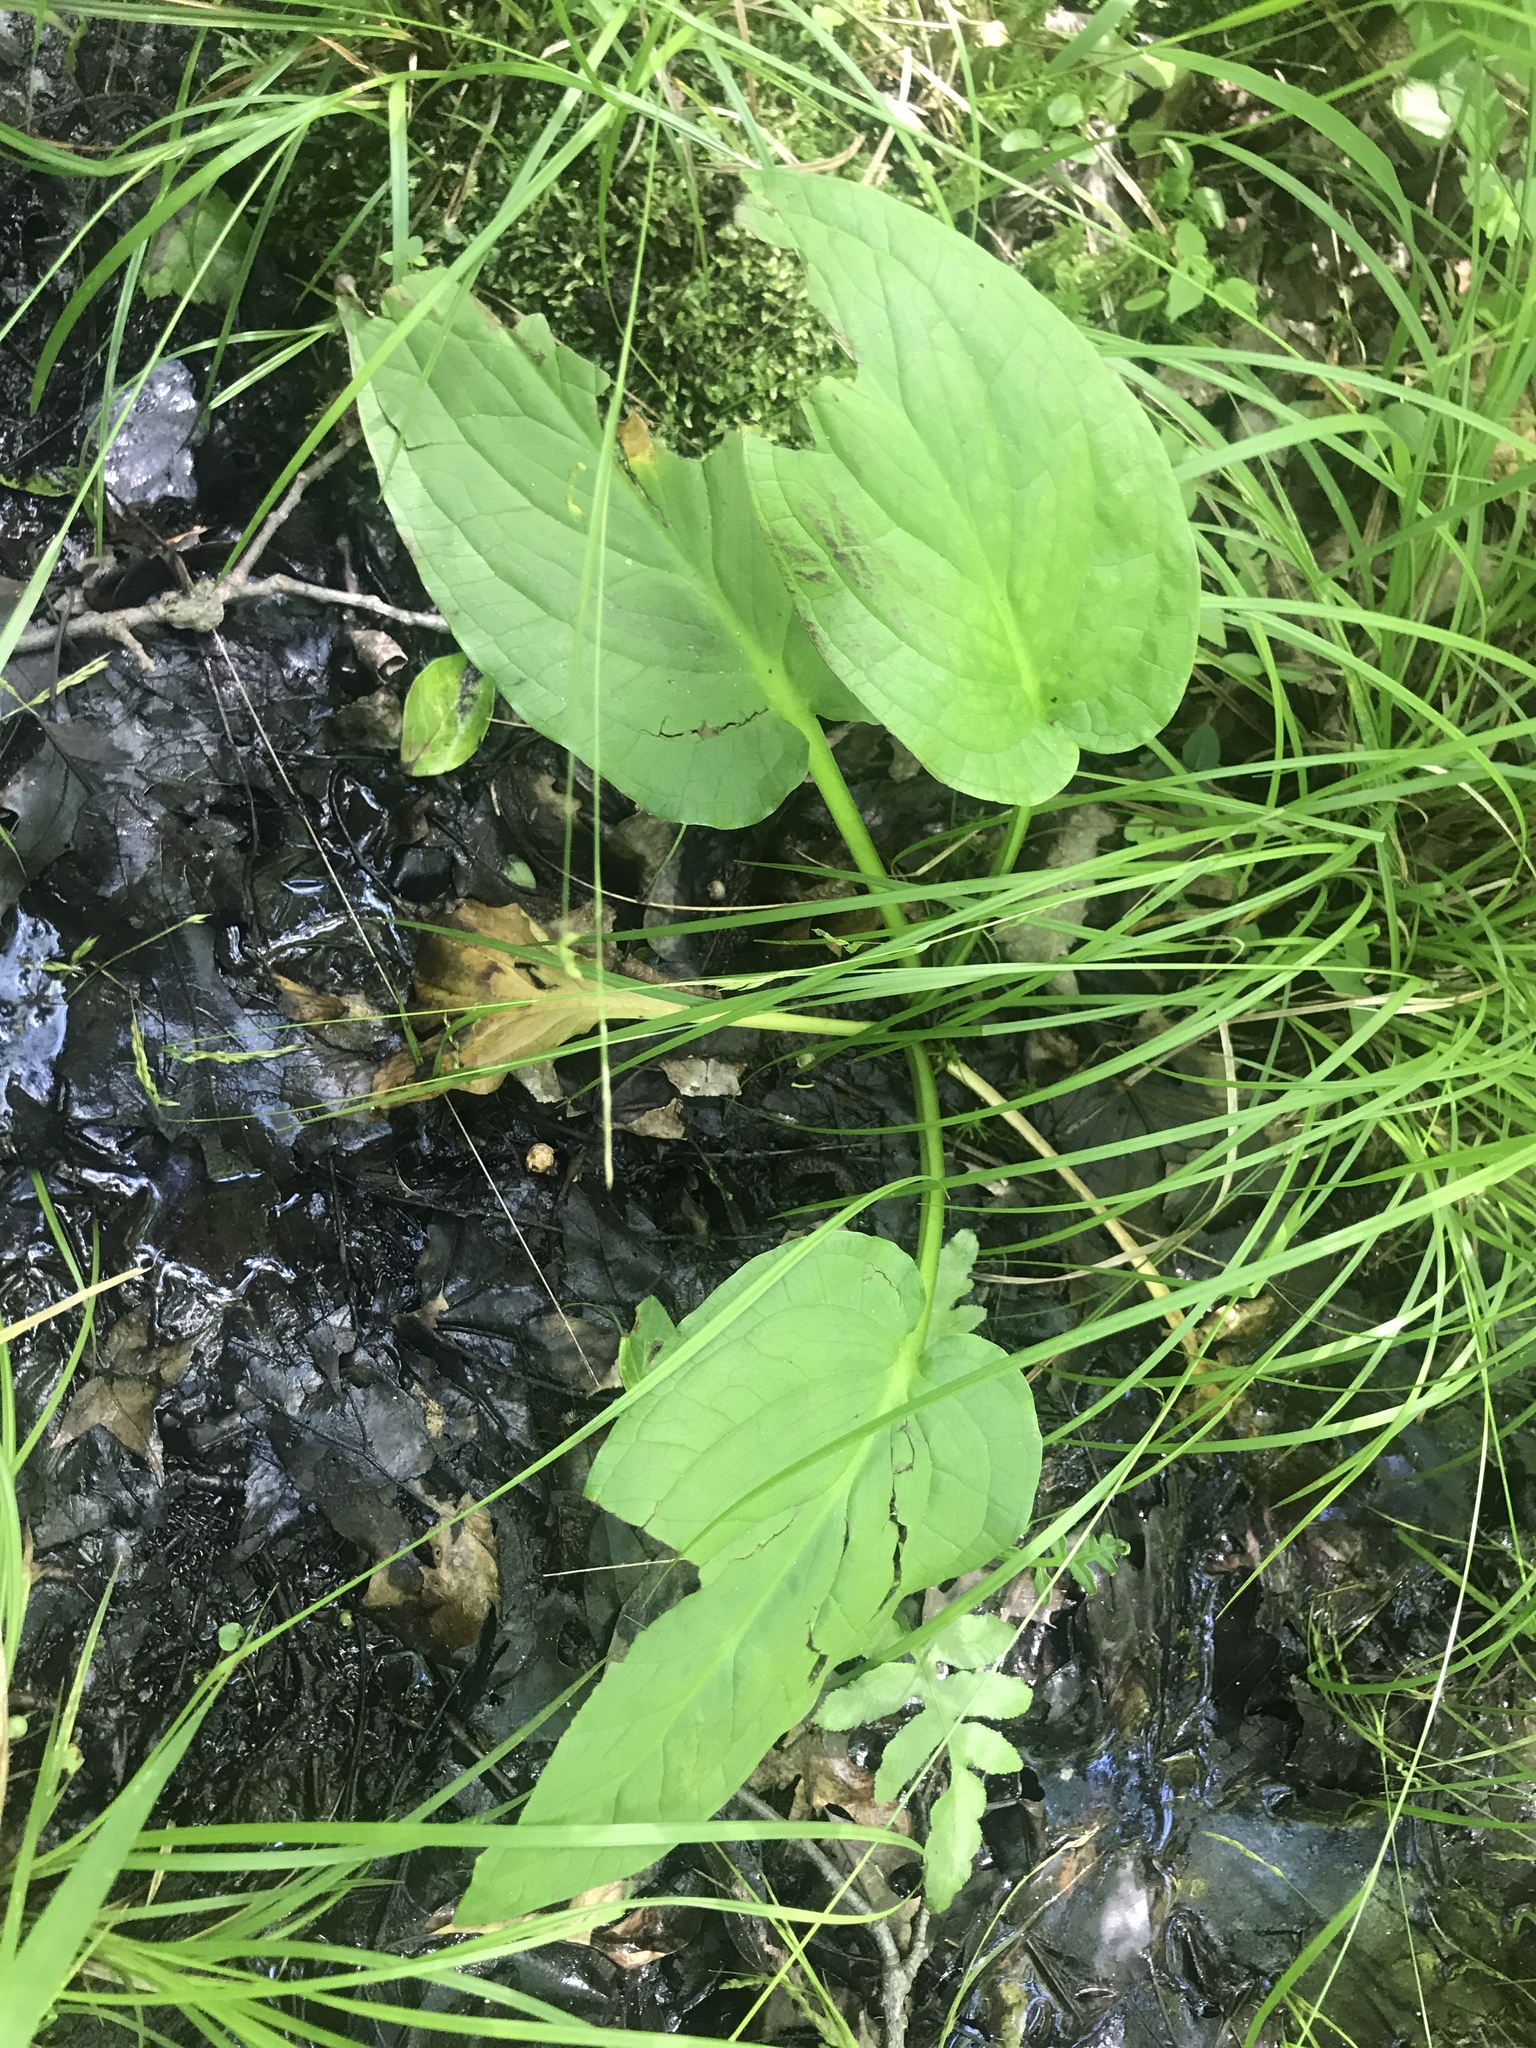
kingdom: Plantae
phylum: Tracheophyta
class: Liliopsida
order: Alismatales
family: Araceae
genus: Symplocarpus
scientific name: Symplocarpus foetidus
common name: Eastern skunk cabbage
